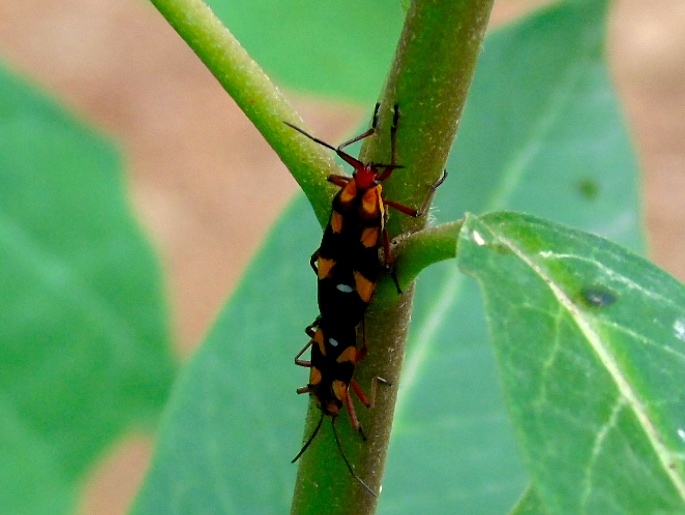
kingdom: Animalia
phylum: Arthropoda
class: Insecta
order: Hemiptera
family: Lygaeidae
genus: Oncopeltus
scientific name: Oncopeltus sexmaculatus
